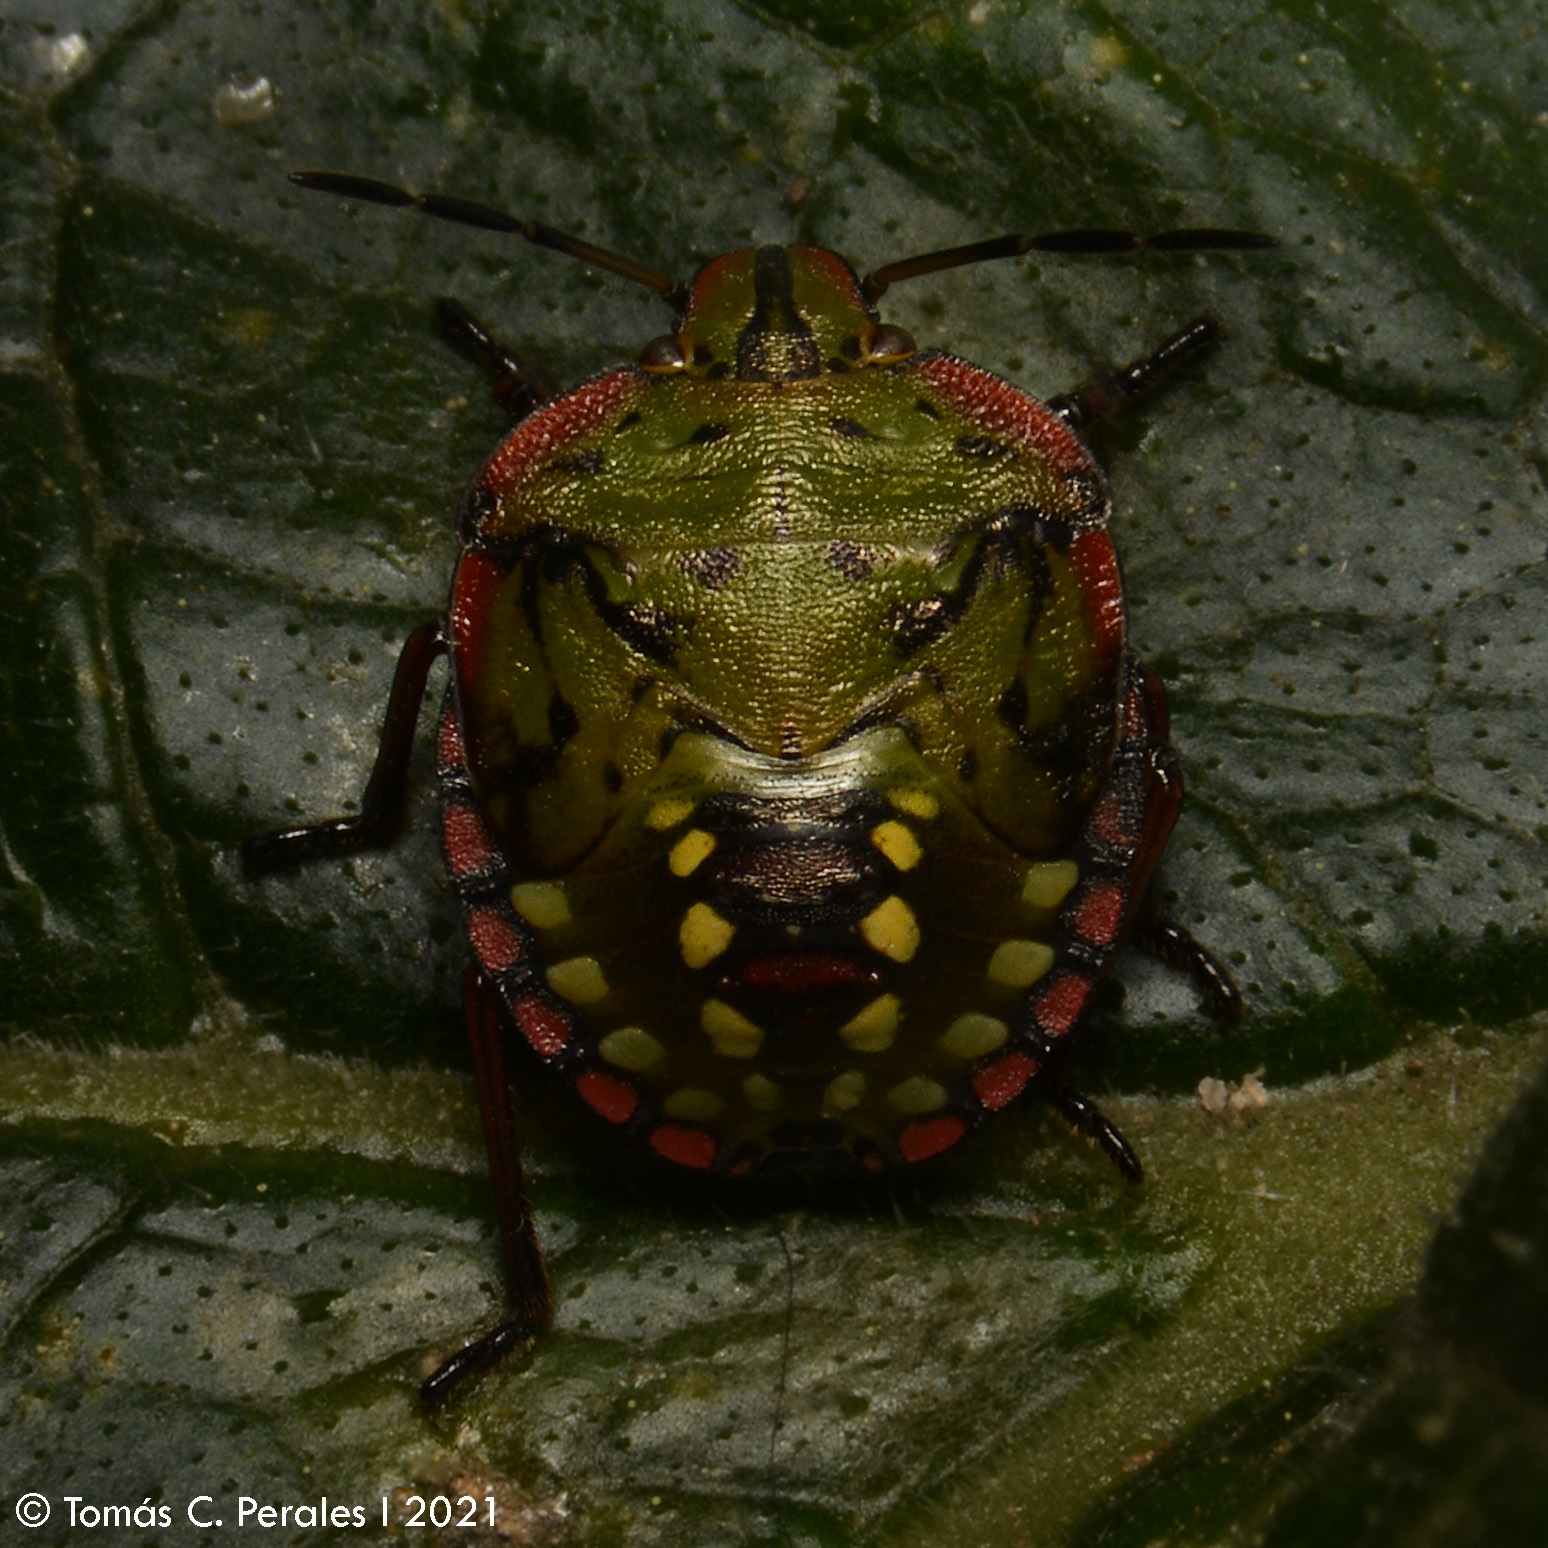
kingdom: Animalia
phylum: Arthropoda
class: Insecta
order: Hemiptera
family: Pentatomidae
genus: Nezara
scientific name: Nezara viridula
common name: Southern green stink bug
